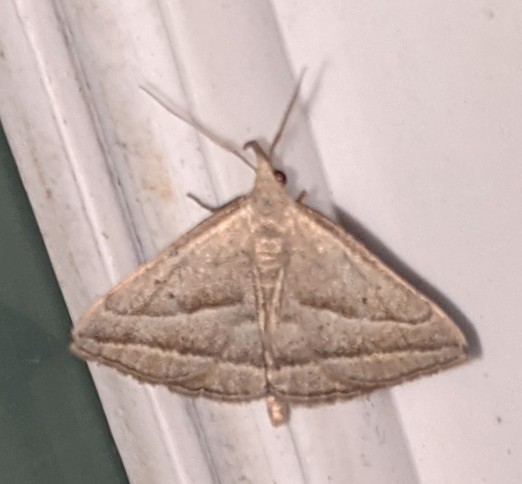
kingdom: Animalia
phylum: Arthropoda
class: Insecta
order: Lepidoptera
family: Erebidae
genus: Macrochilo
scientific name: Macrochilo absorptalis
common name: Slant-lined owlet
